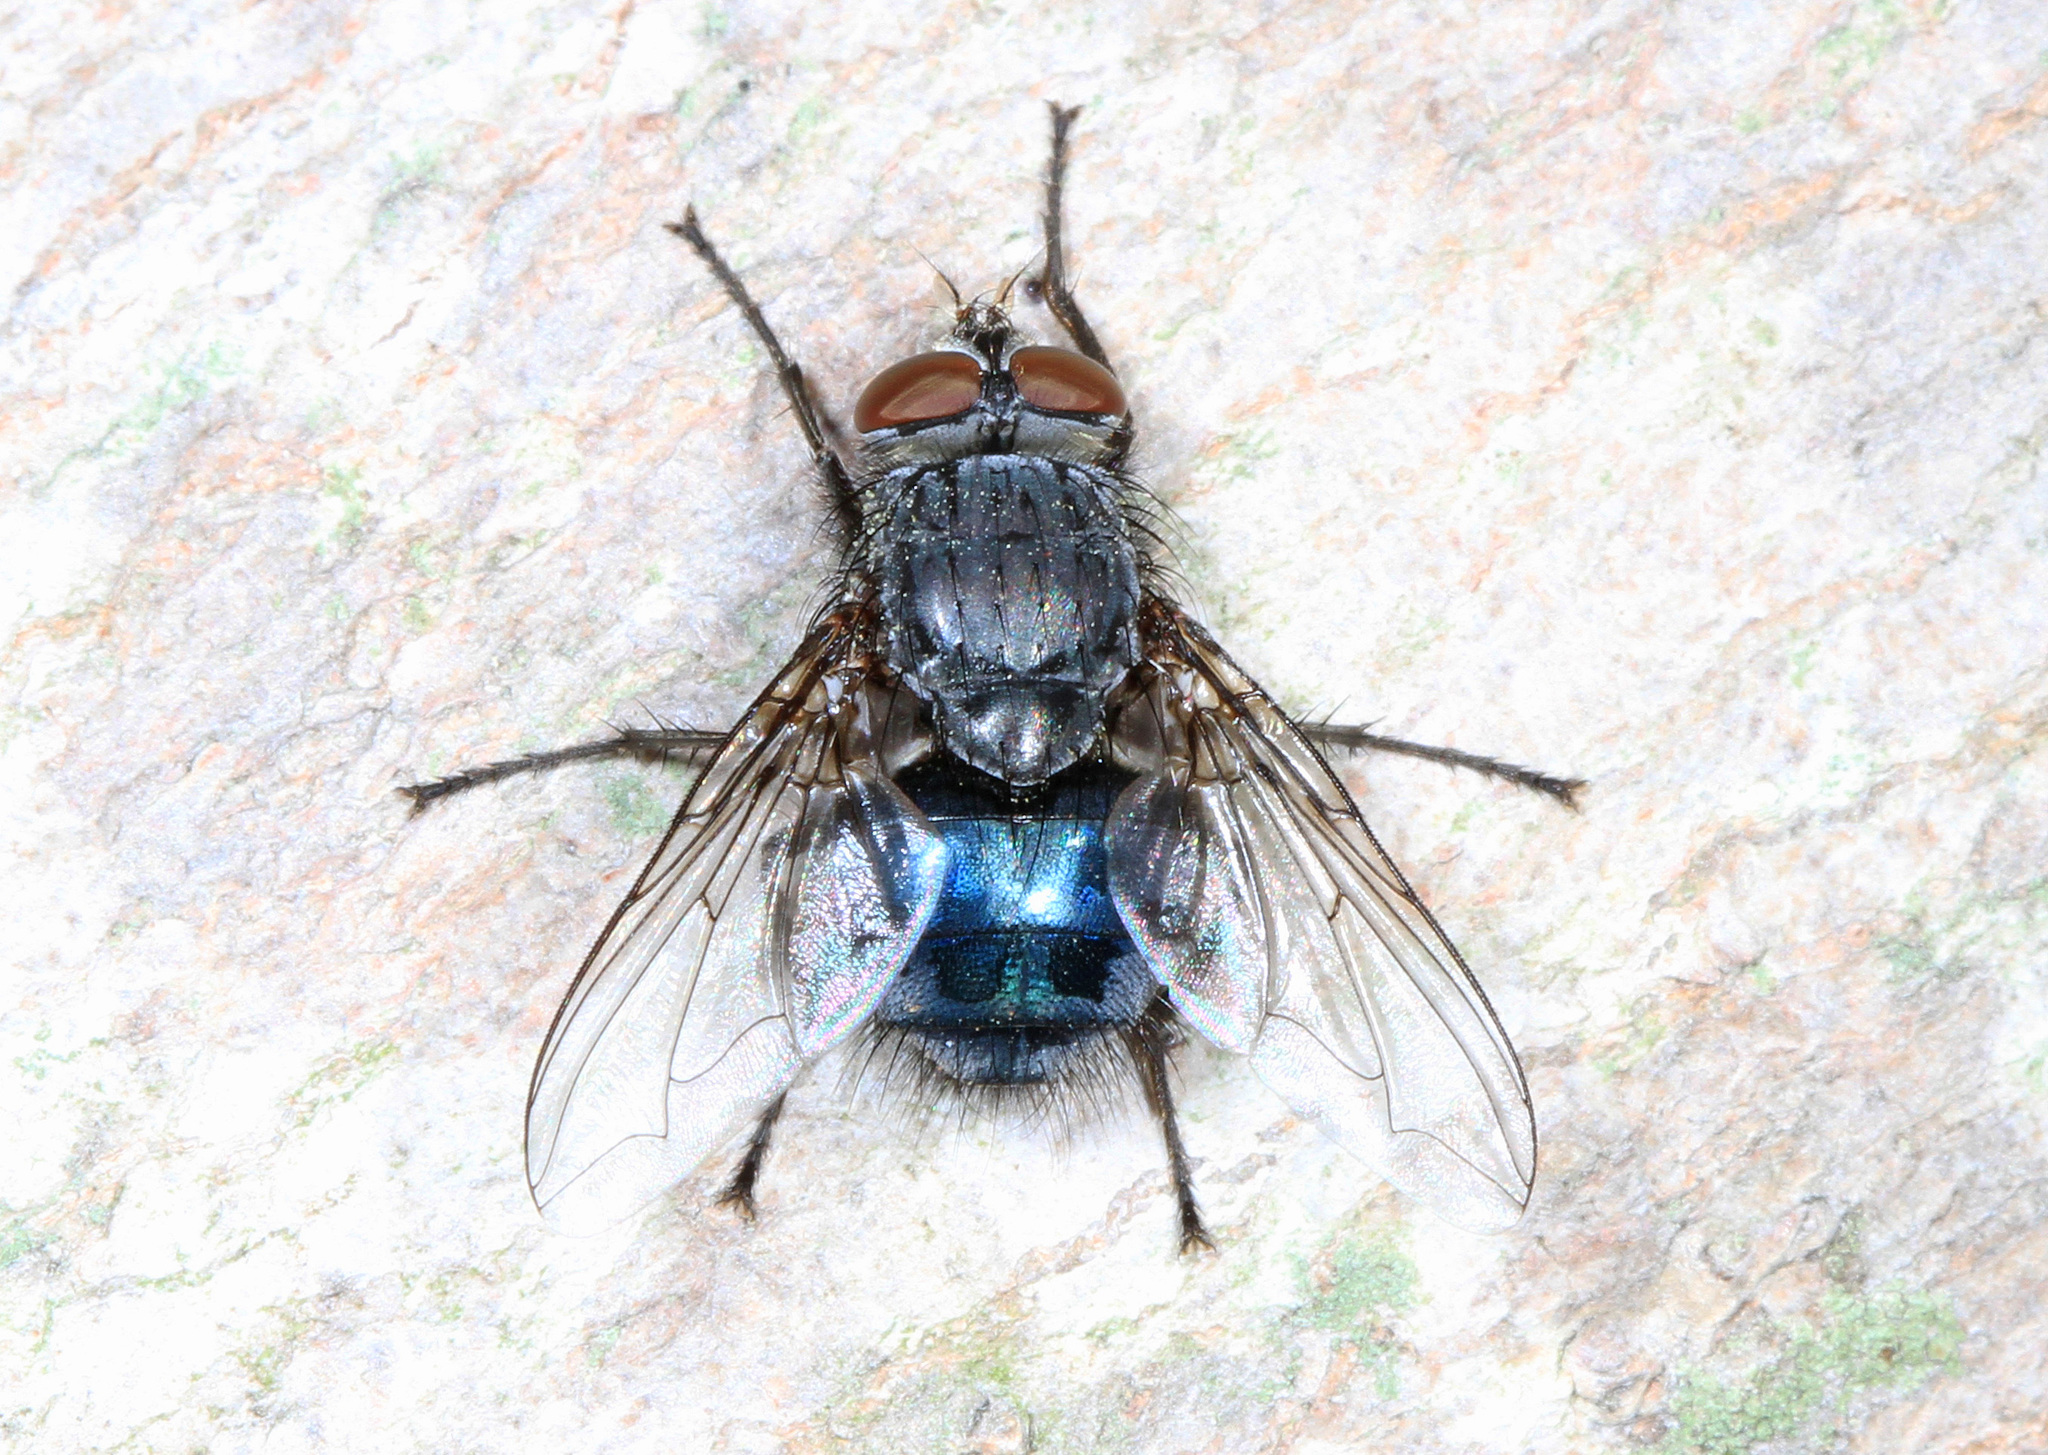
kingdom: Animalia
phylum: Arthropoda
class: Insecta
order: Diptera
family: Calliphoridae
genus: Calliphora
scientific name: Calliphora vicina
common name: Common blow flie
